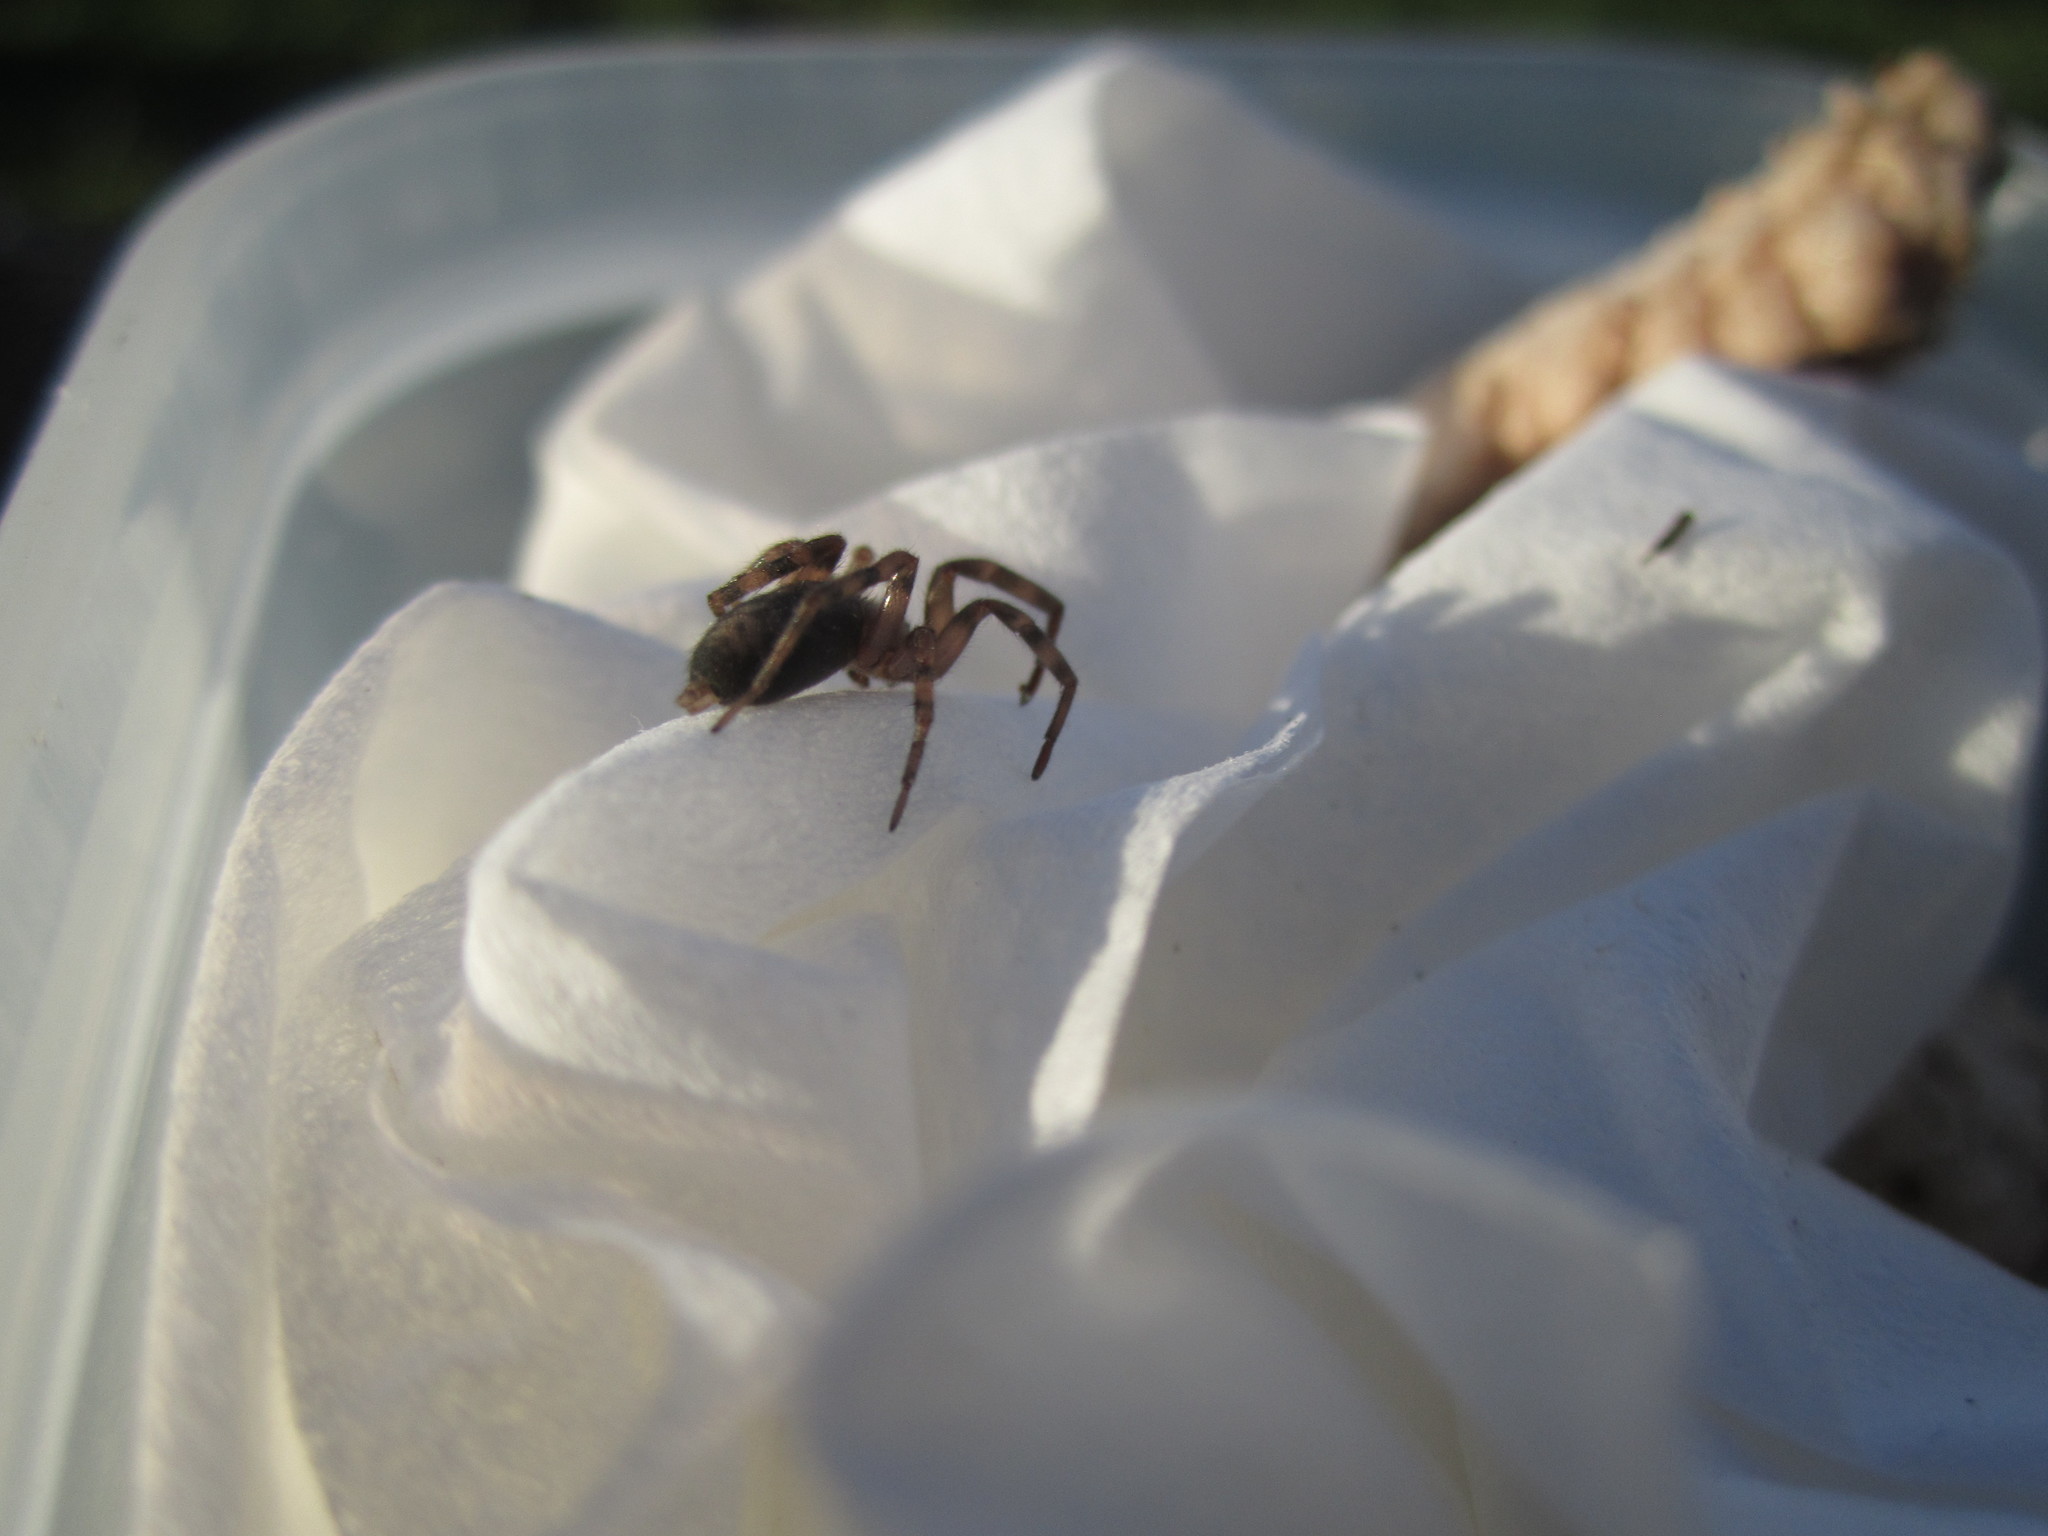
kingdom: Animalia
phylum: Arthropoda
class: Arachnida
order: Araneae
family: Gnaphosidae
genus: Intruda
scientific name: Intruda signata
